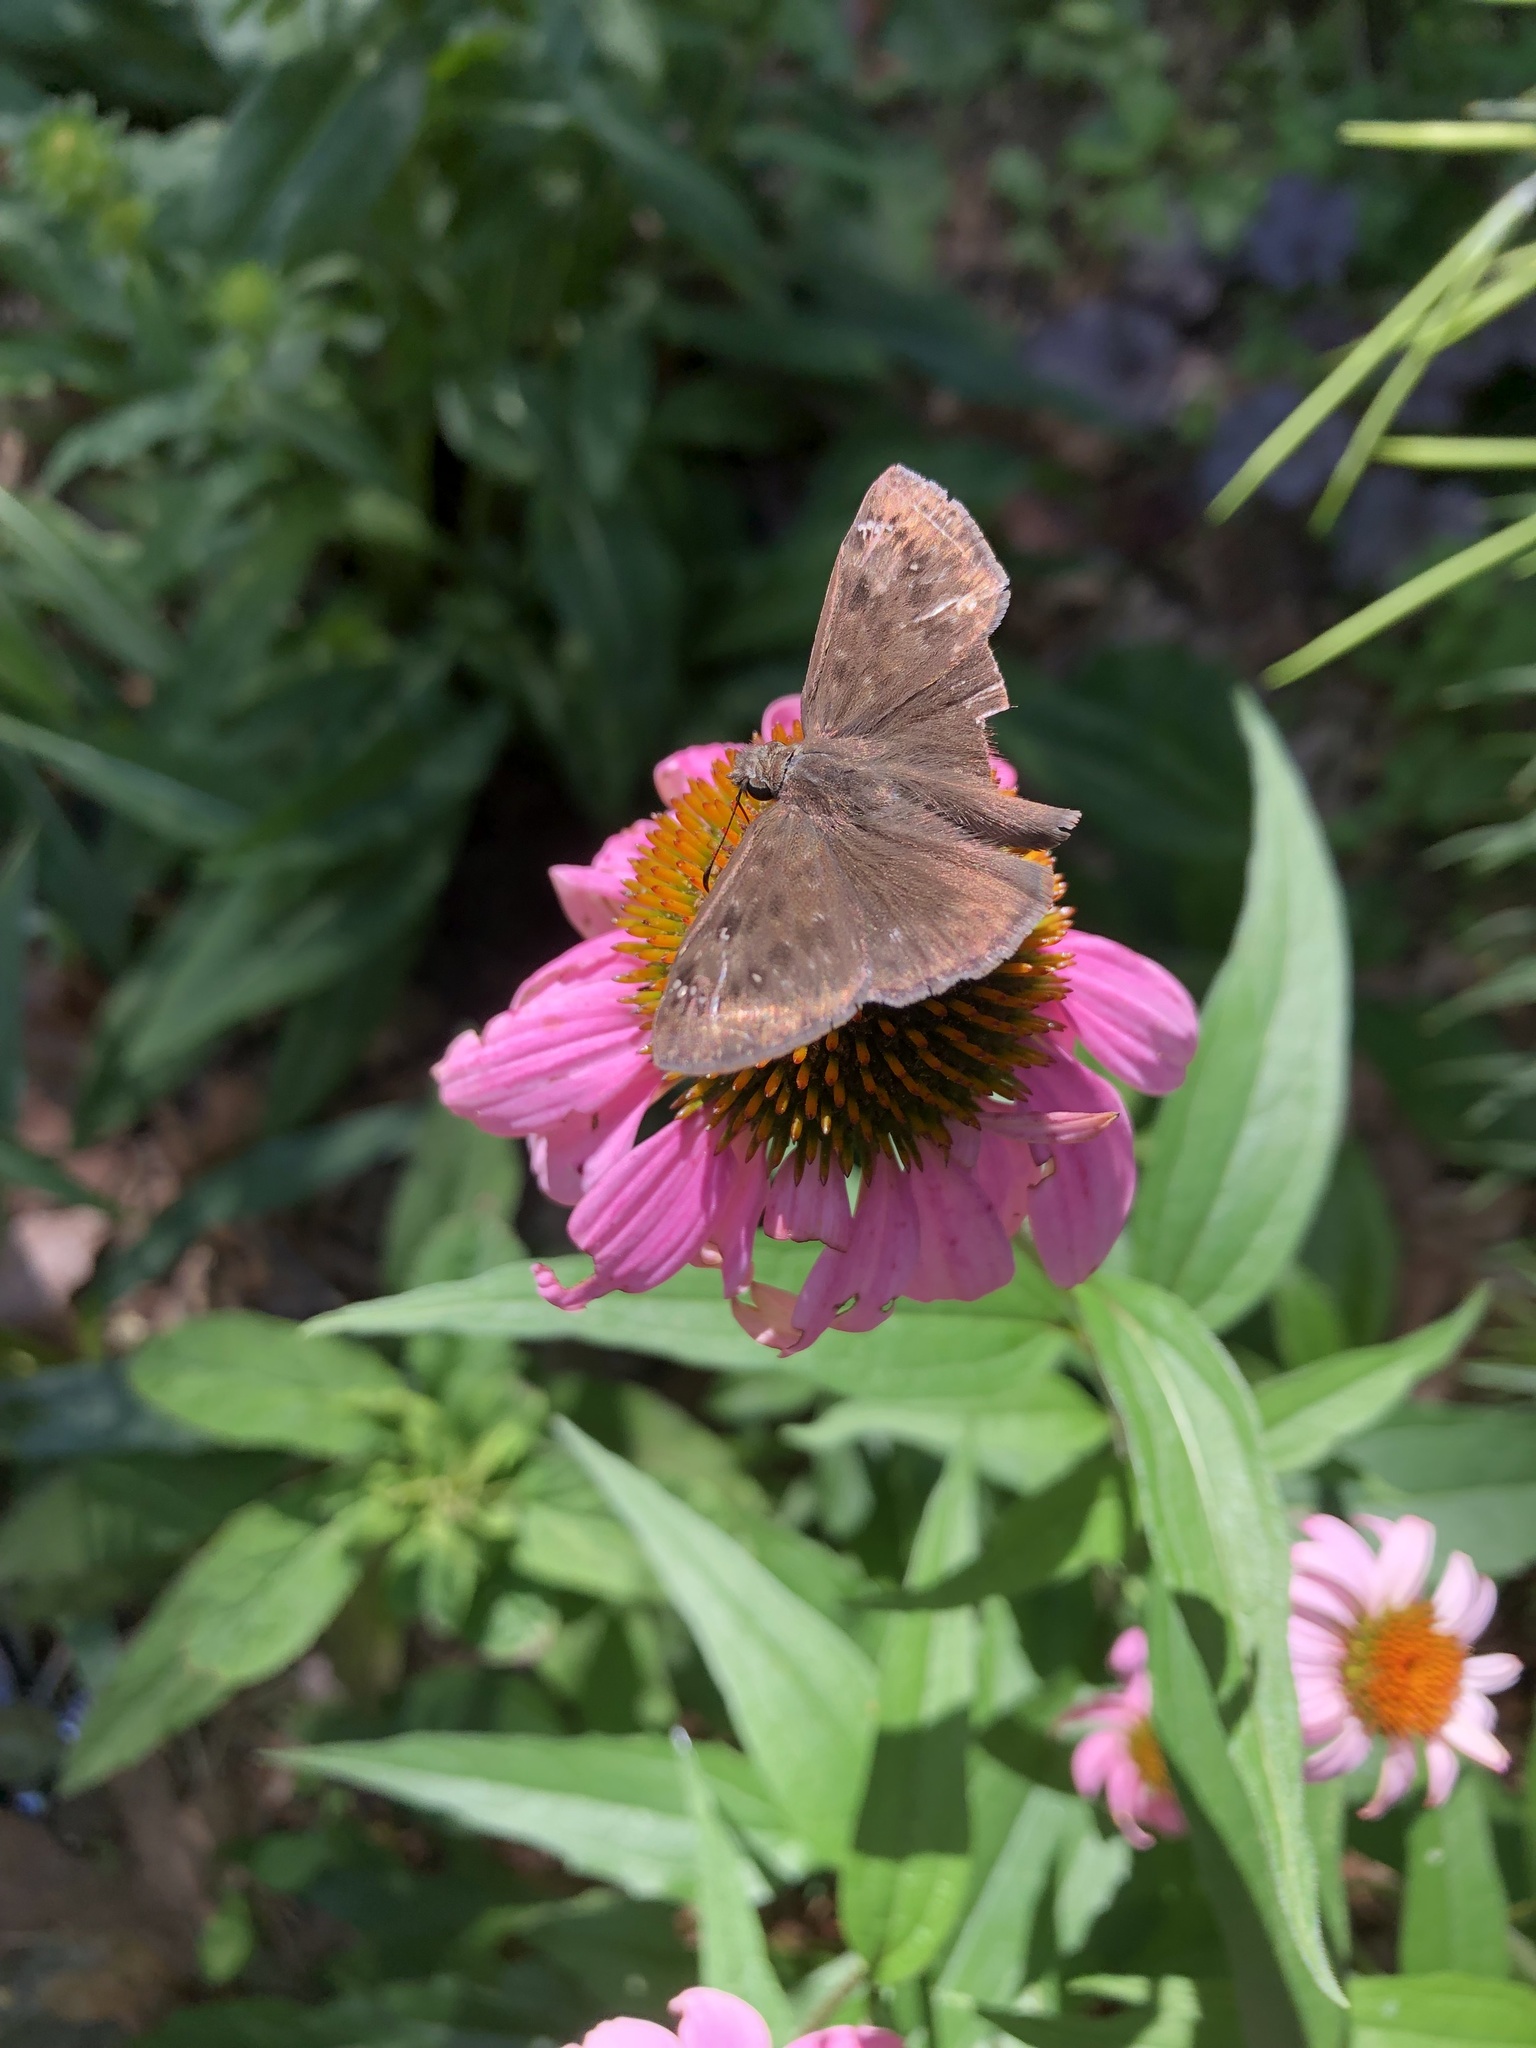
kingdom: Animalia
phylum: Arthropoda
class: Insecta
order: Lepidoptera
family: Hesperiidae
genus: Erynnis
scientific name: Erynnis horatius
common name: Horace's duskywing
